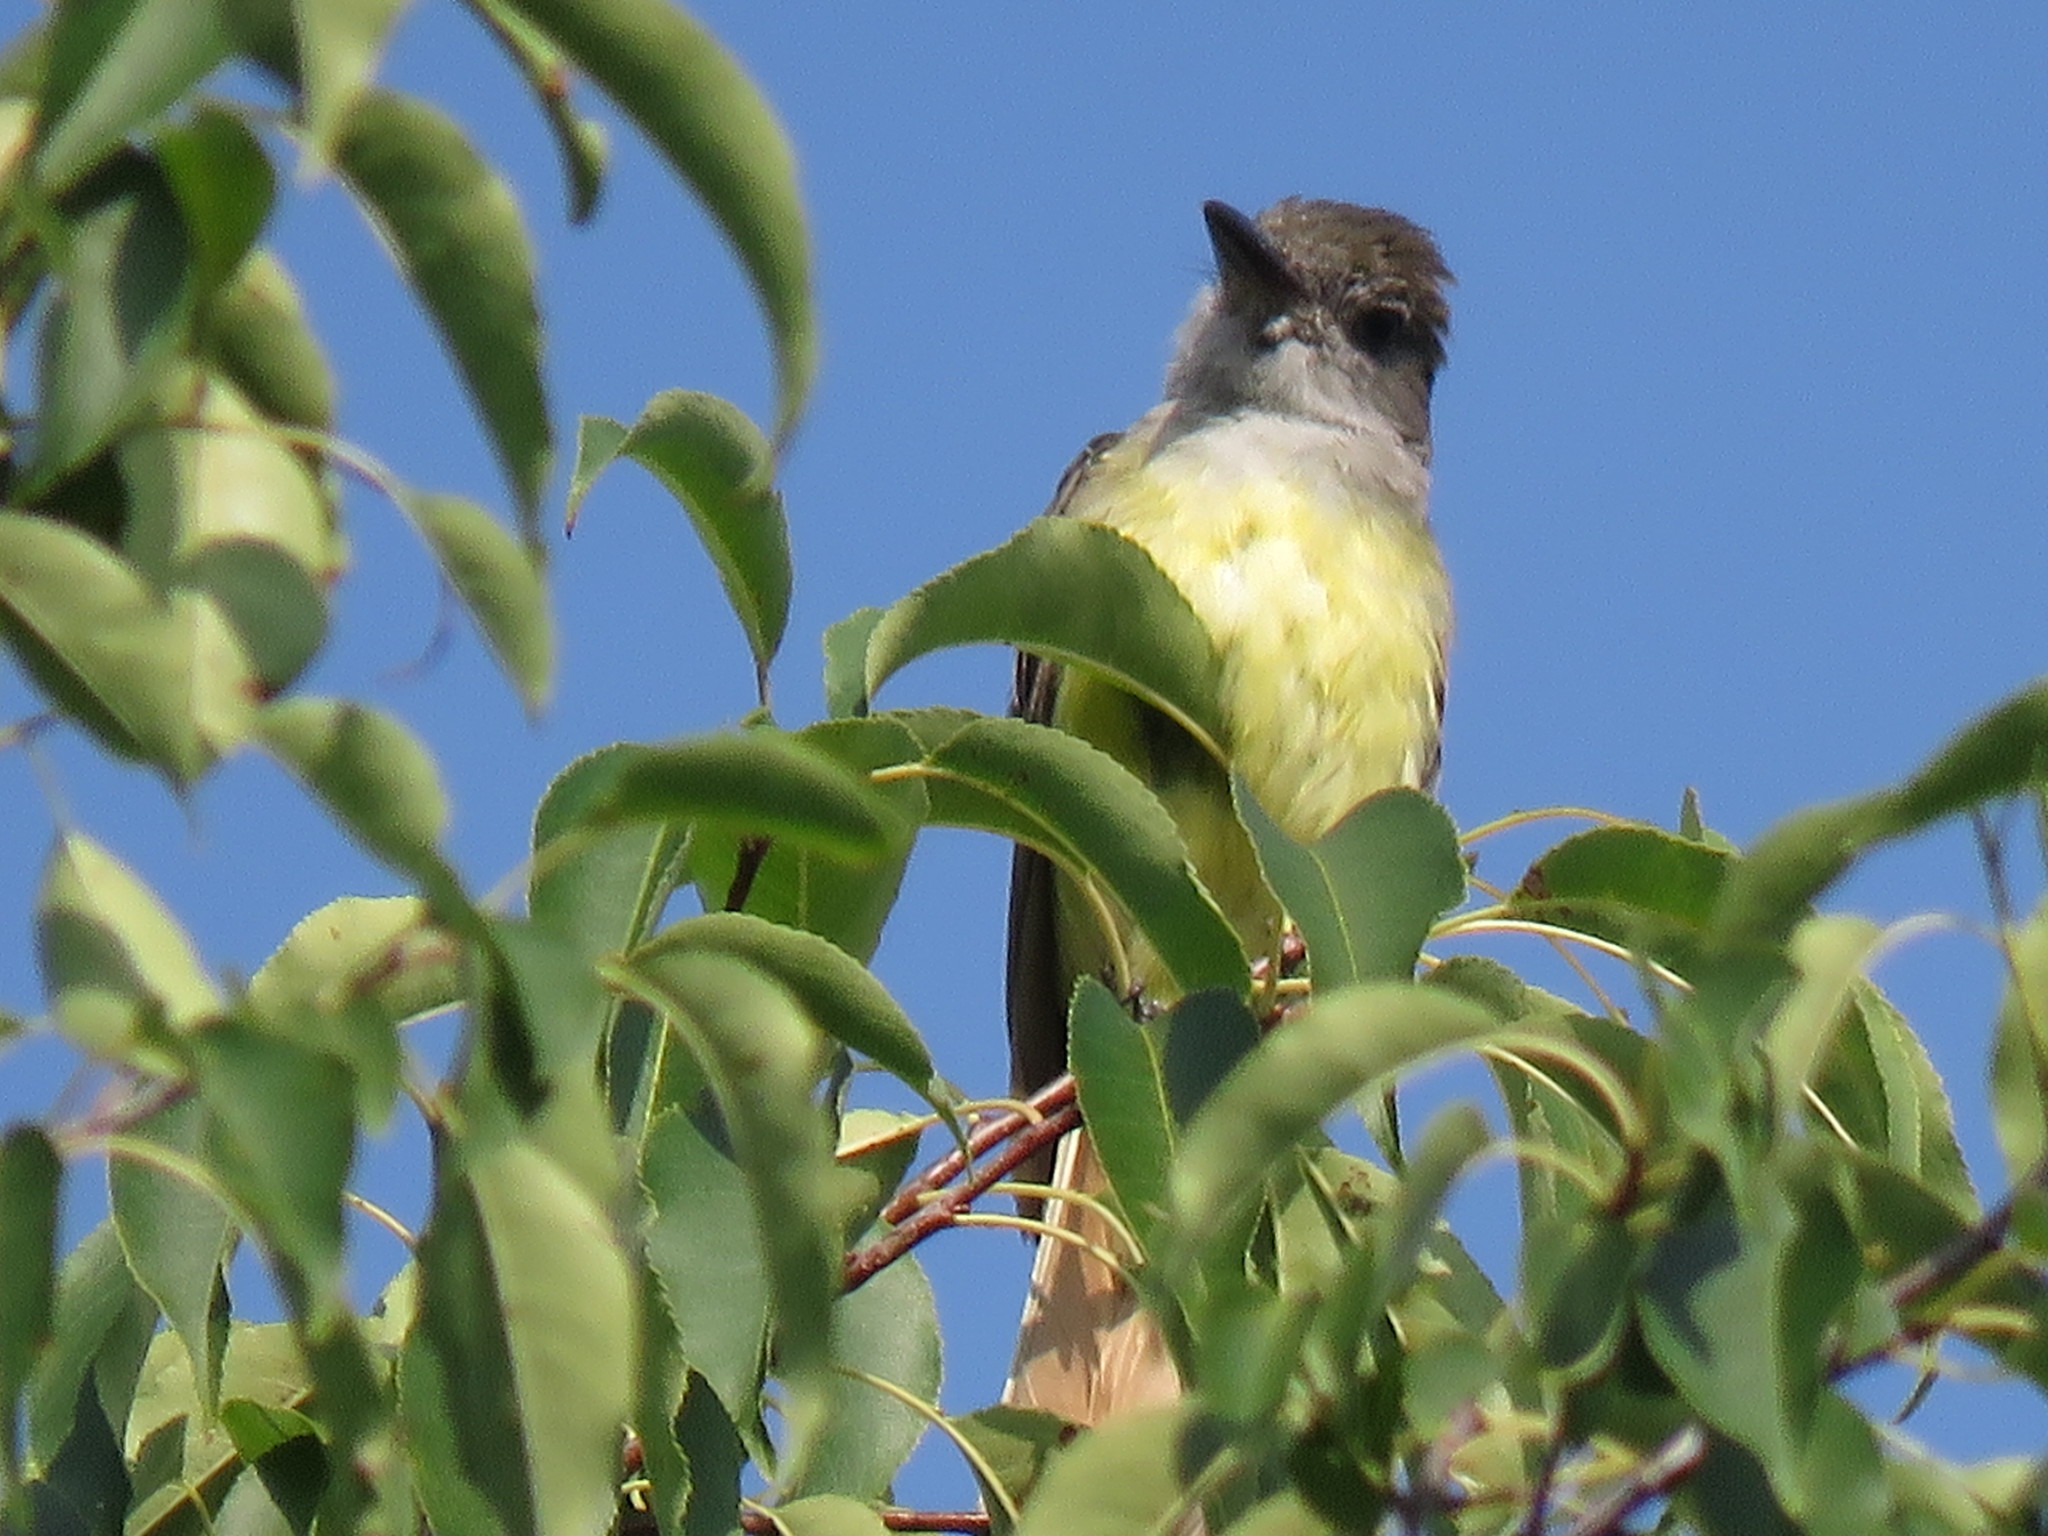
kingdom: Animalia
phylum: Chordata
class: Aves
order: Passeriformes
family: Tyrannidae
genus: Myiarchus
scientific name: Myiarchus crinitus
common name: Great crested flycatcher
